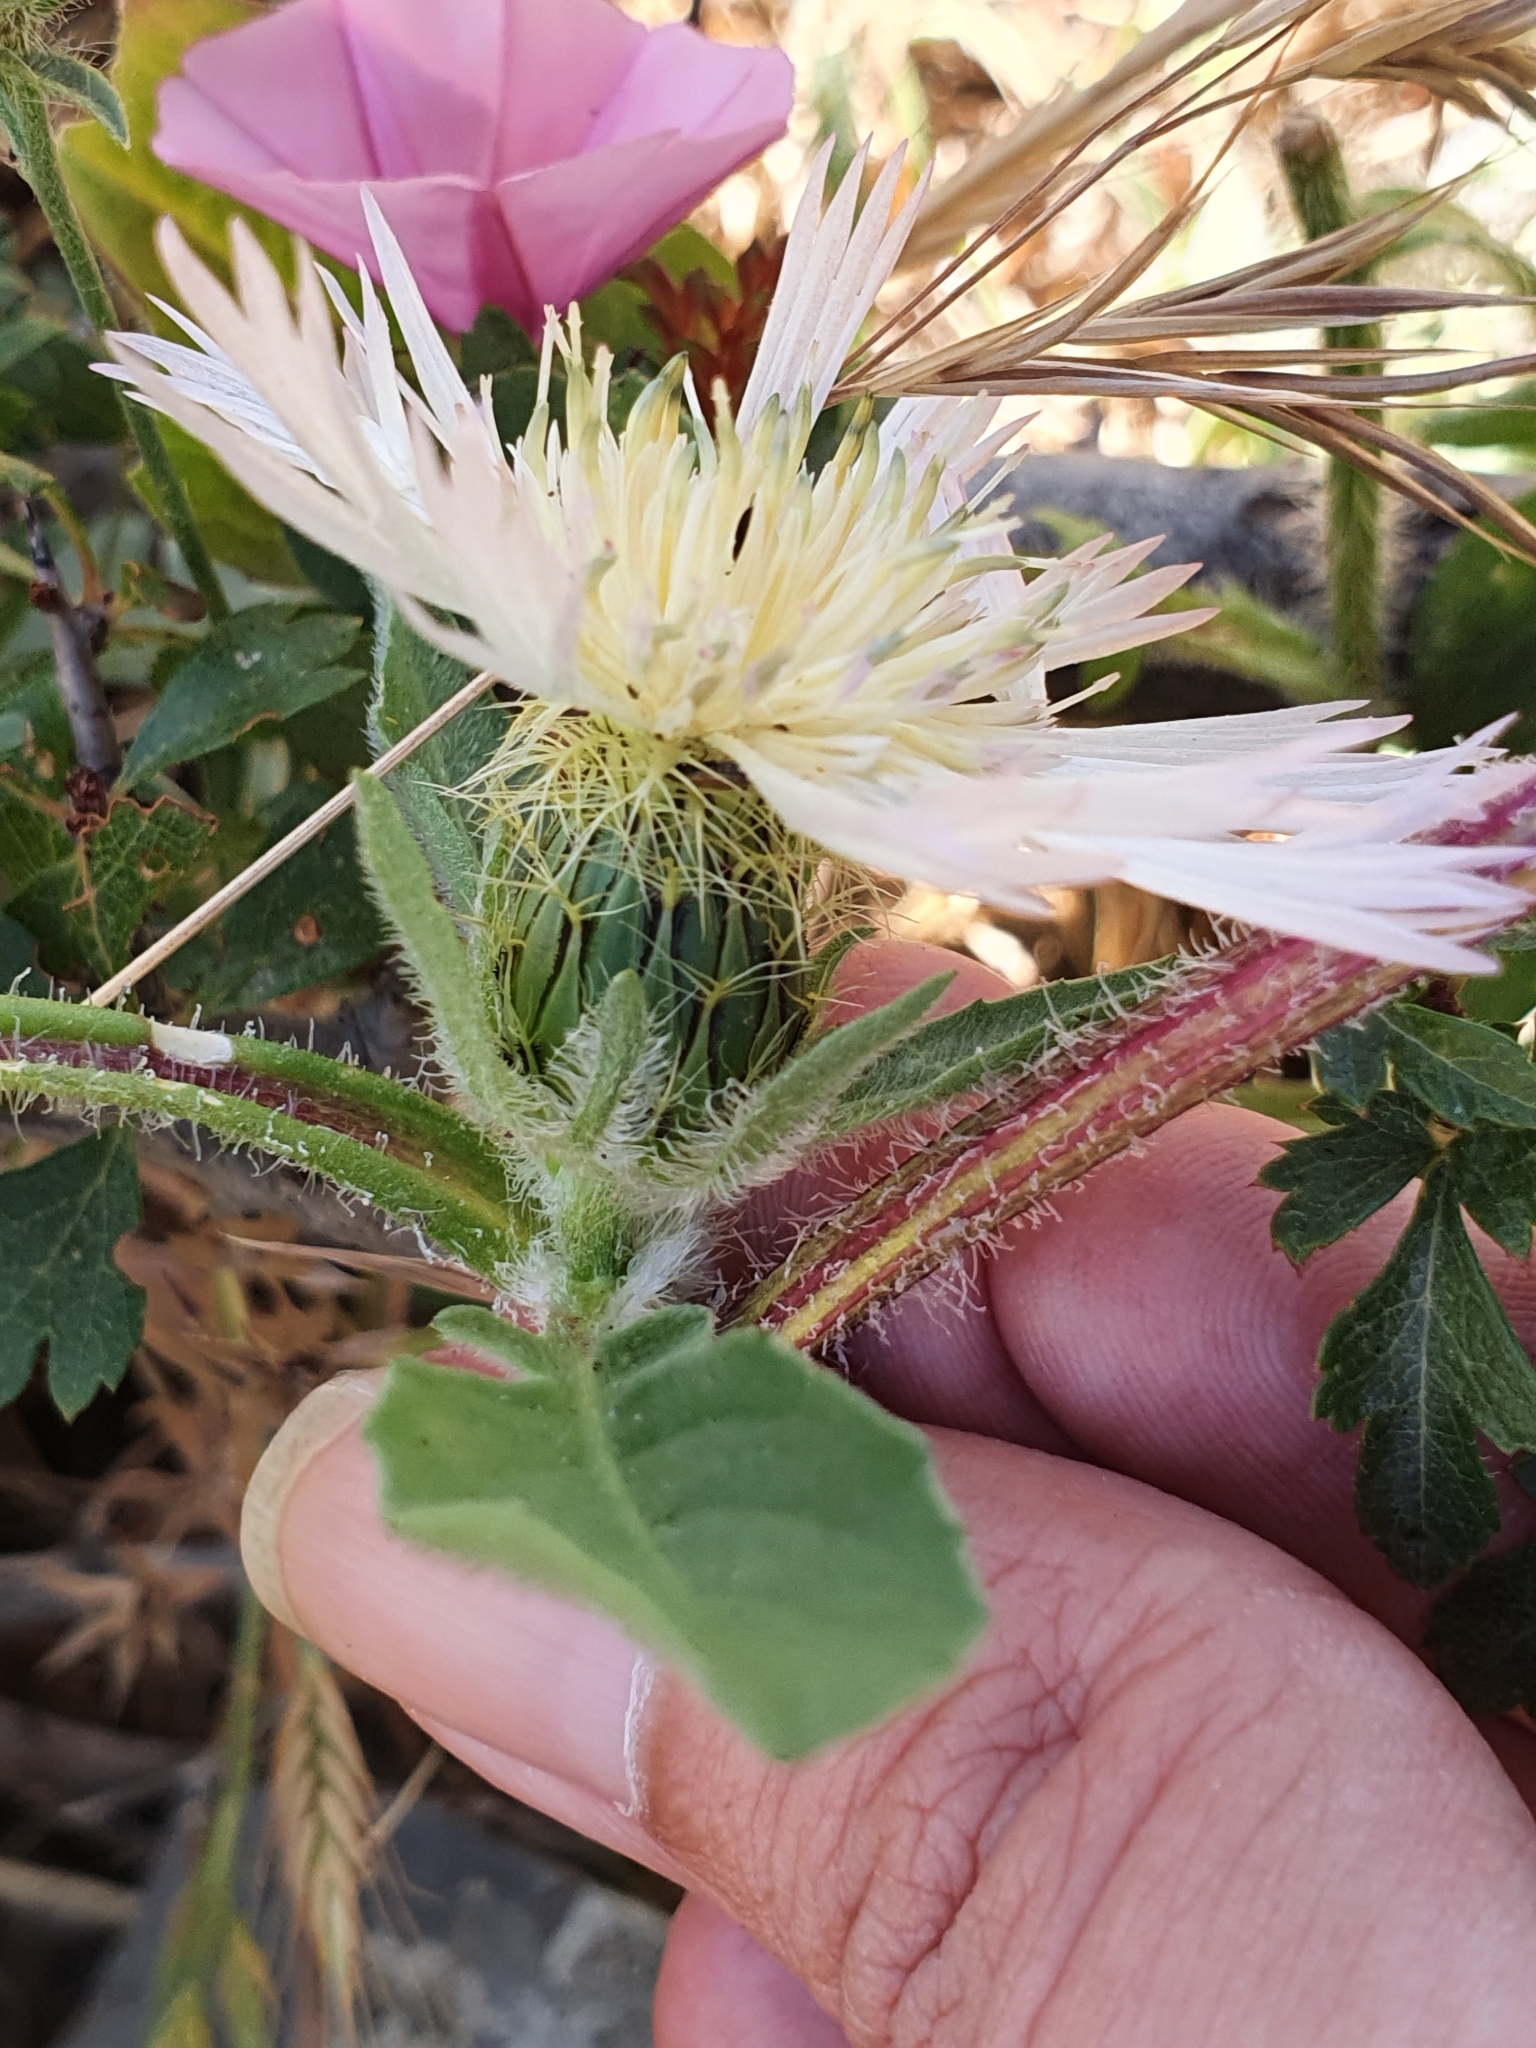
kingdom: Plantae
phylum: Tracheophyta
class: Magnoliopsida
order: Asterales
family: Asteraceae
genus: Centaurea
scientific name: Centaurea pullata
